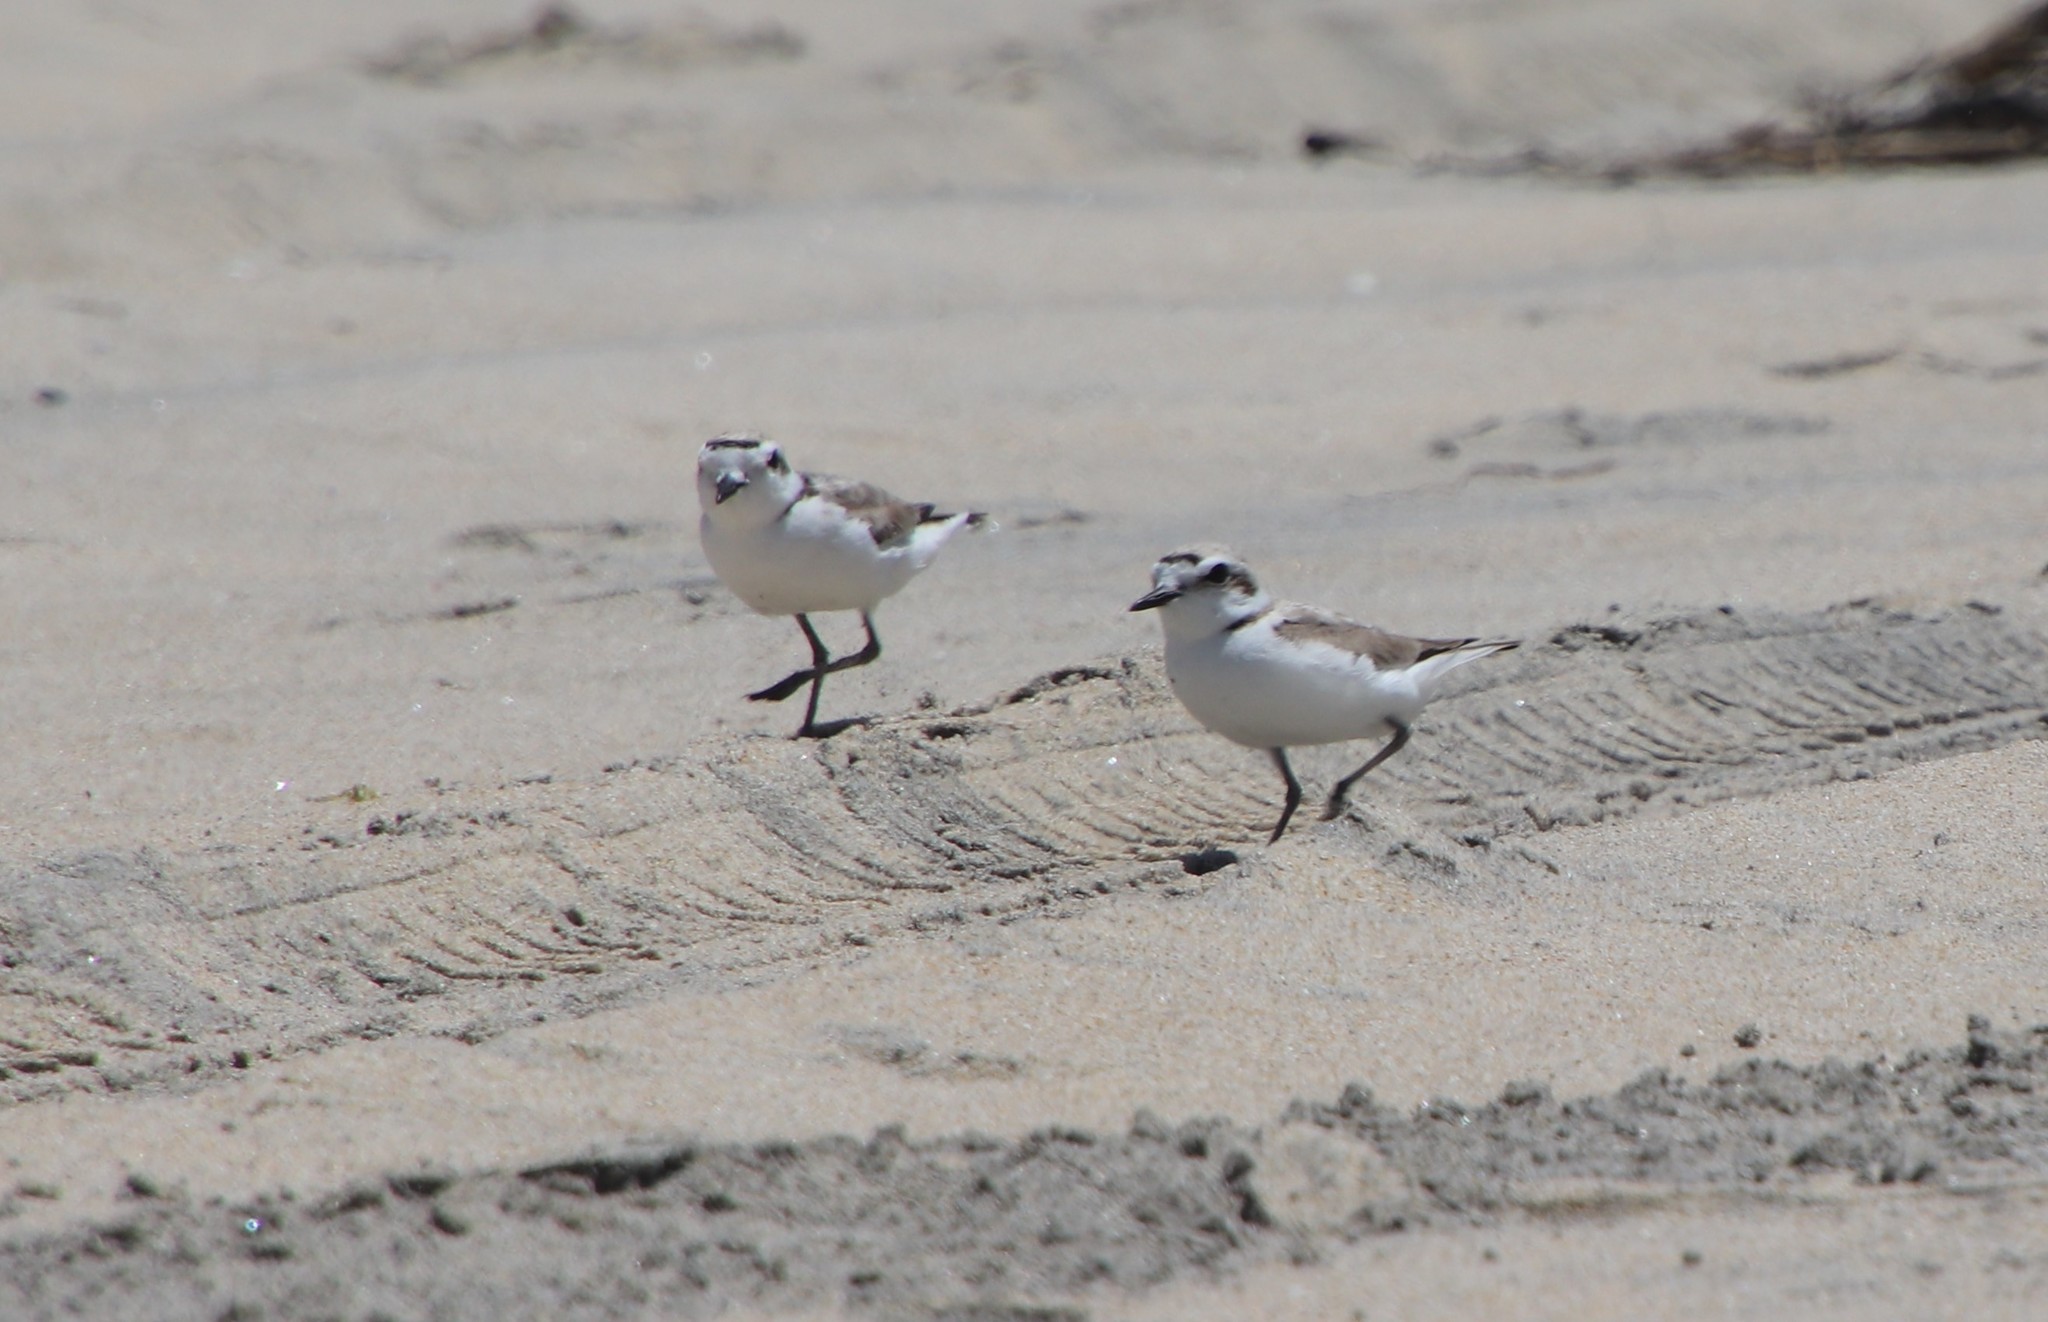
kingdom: Animalia
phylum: Chordata
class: Aves
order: Charadriiformes
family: Charadriidae
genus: Anarhynchus
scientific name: Anarhynchus
